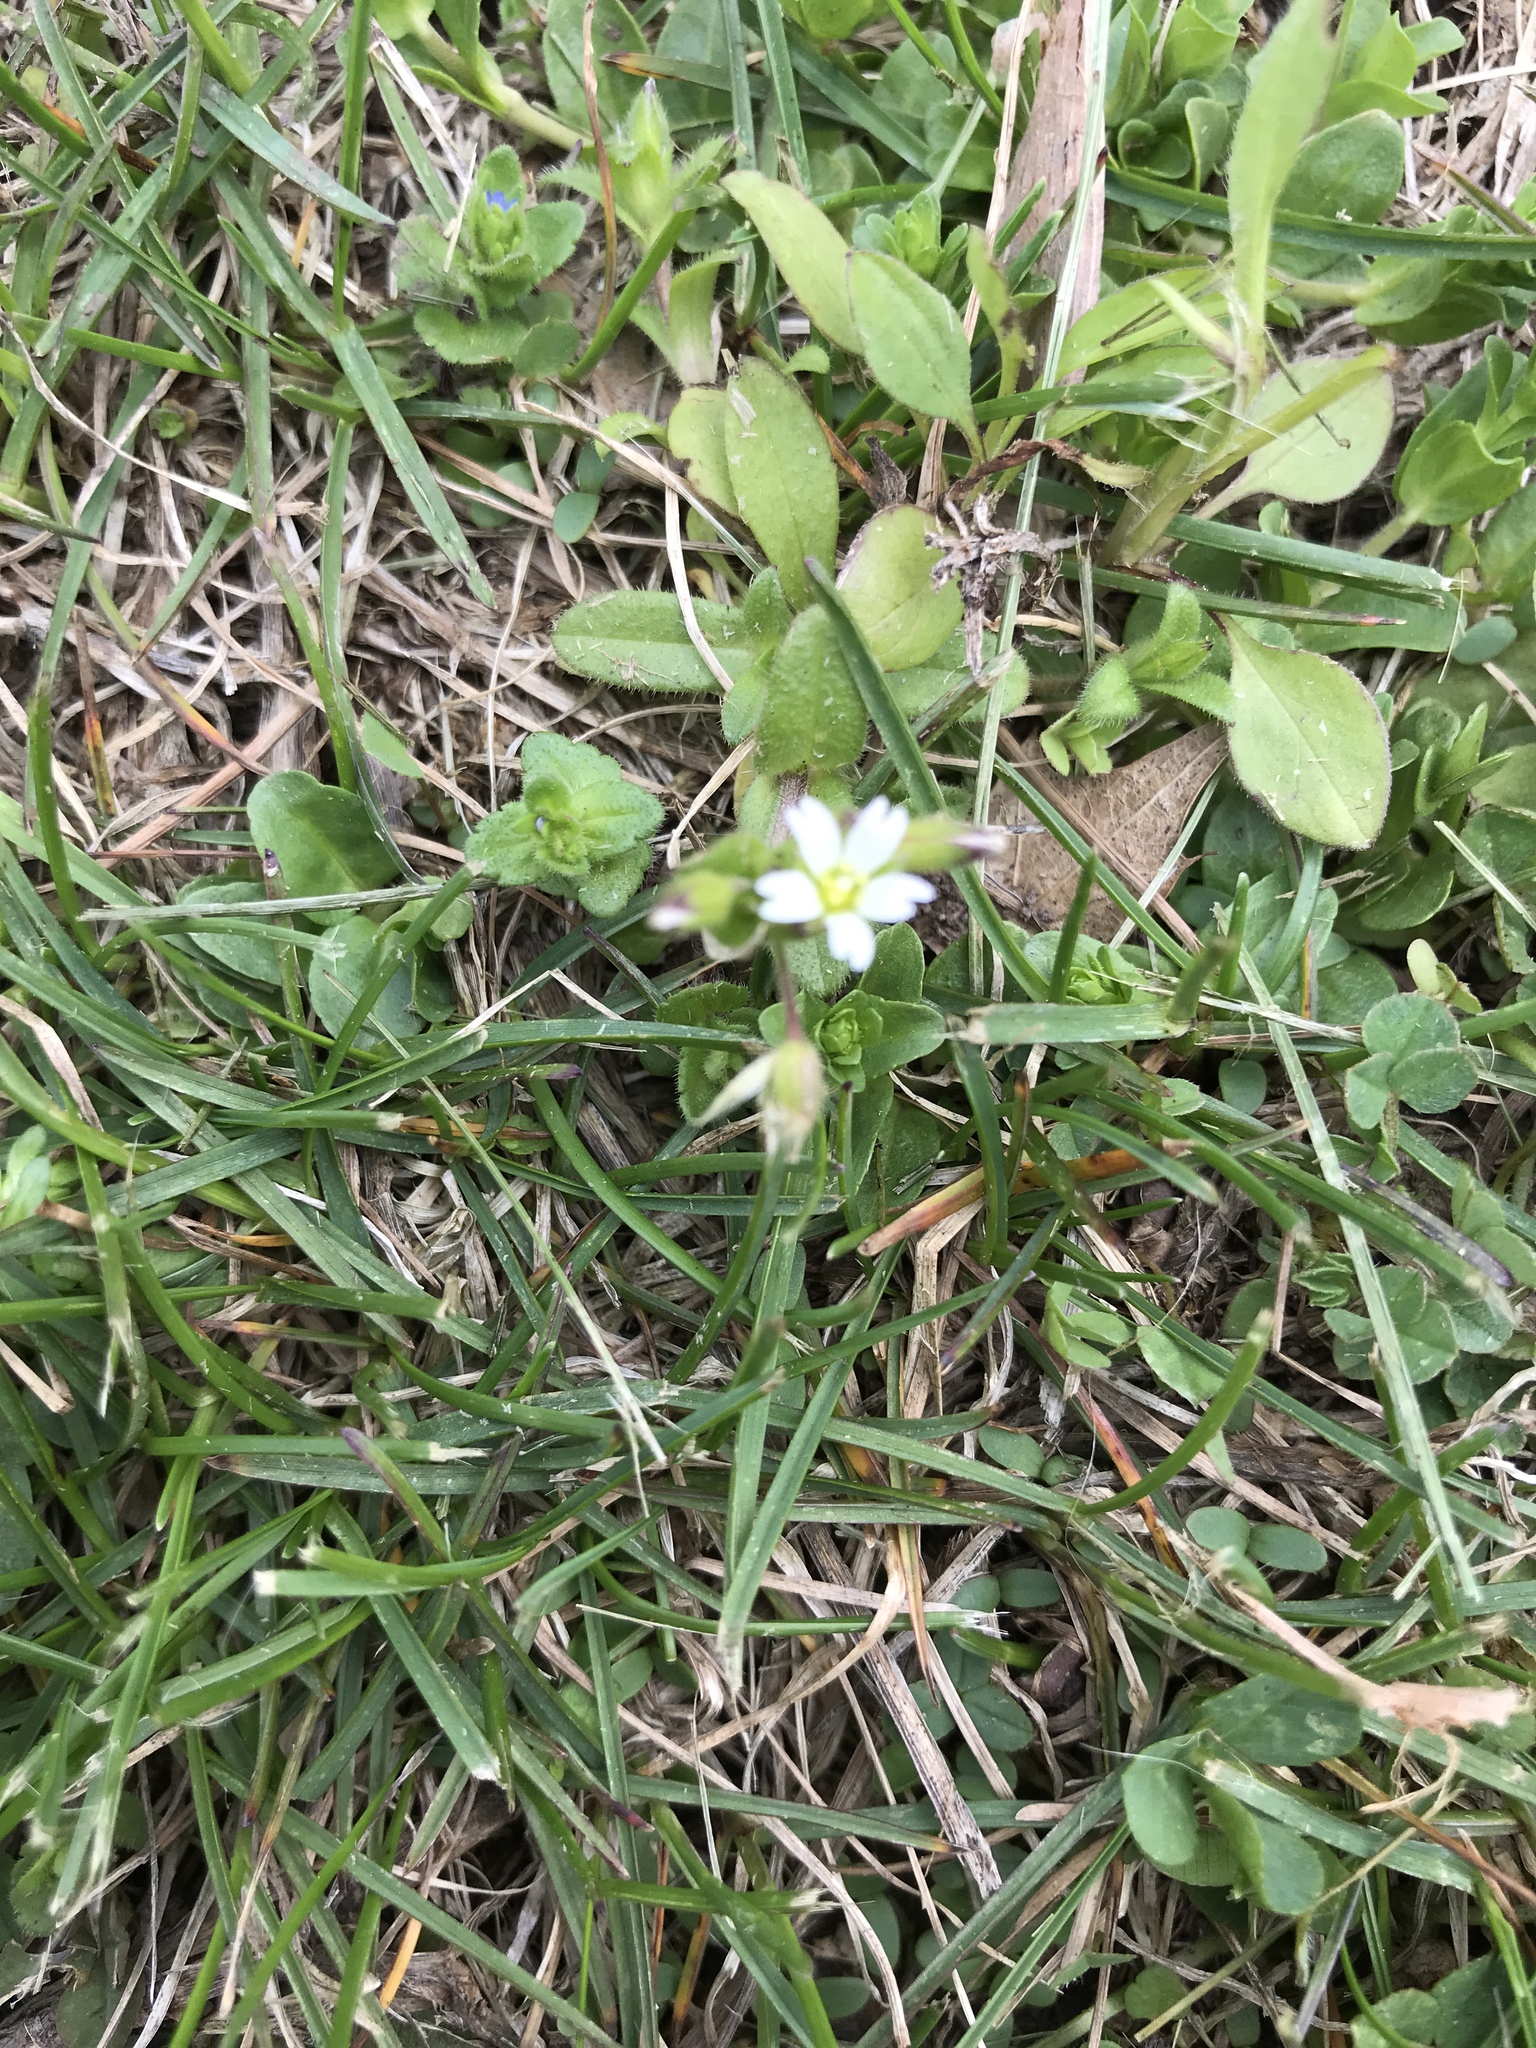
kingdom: Plantae
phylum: Tracheophyta
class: Magnoliopsida
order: Caryophyllales
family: Caryophyllaceae
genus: Stellaria
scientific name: Stellaria media
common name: Common chickweed
